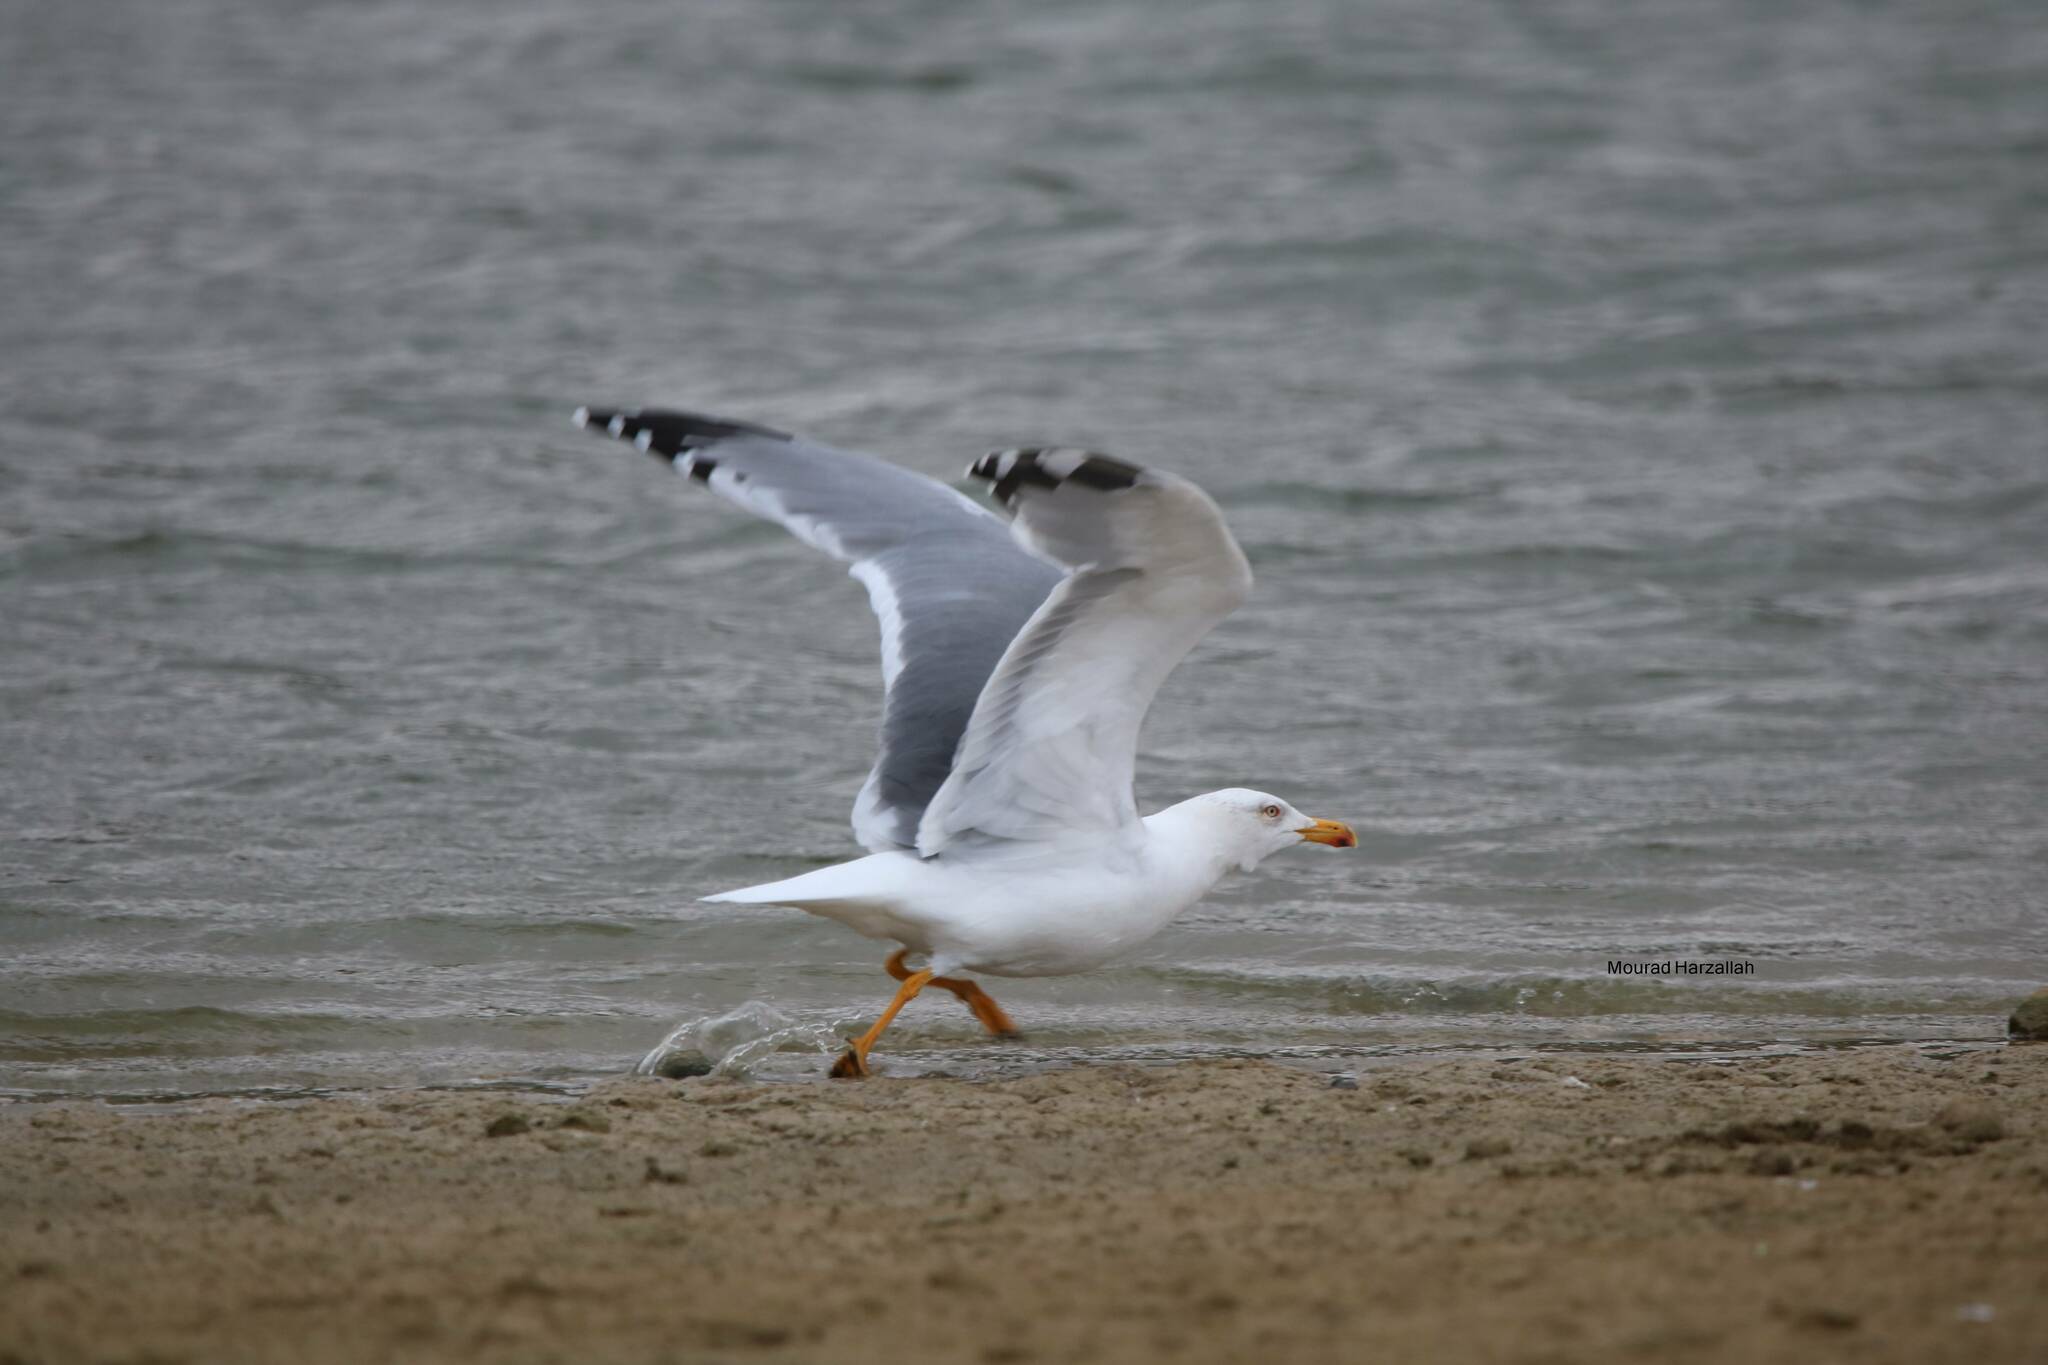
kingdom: Animalia
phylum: Chordata
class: Aves
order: Charadriiformes
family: Laridae
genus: Larus
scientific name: Larus michahellis
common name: Yellow-legged gull
